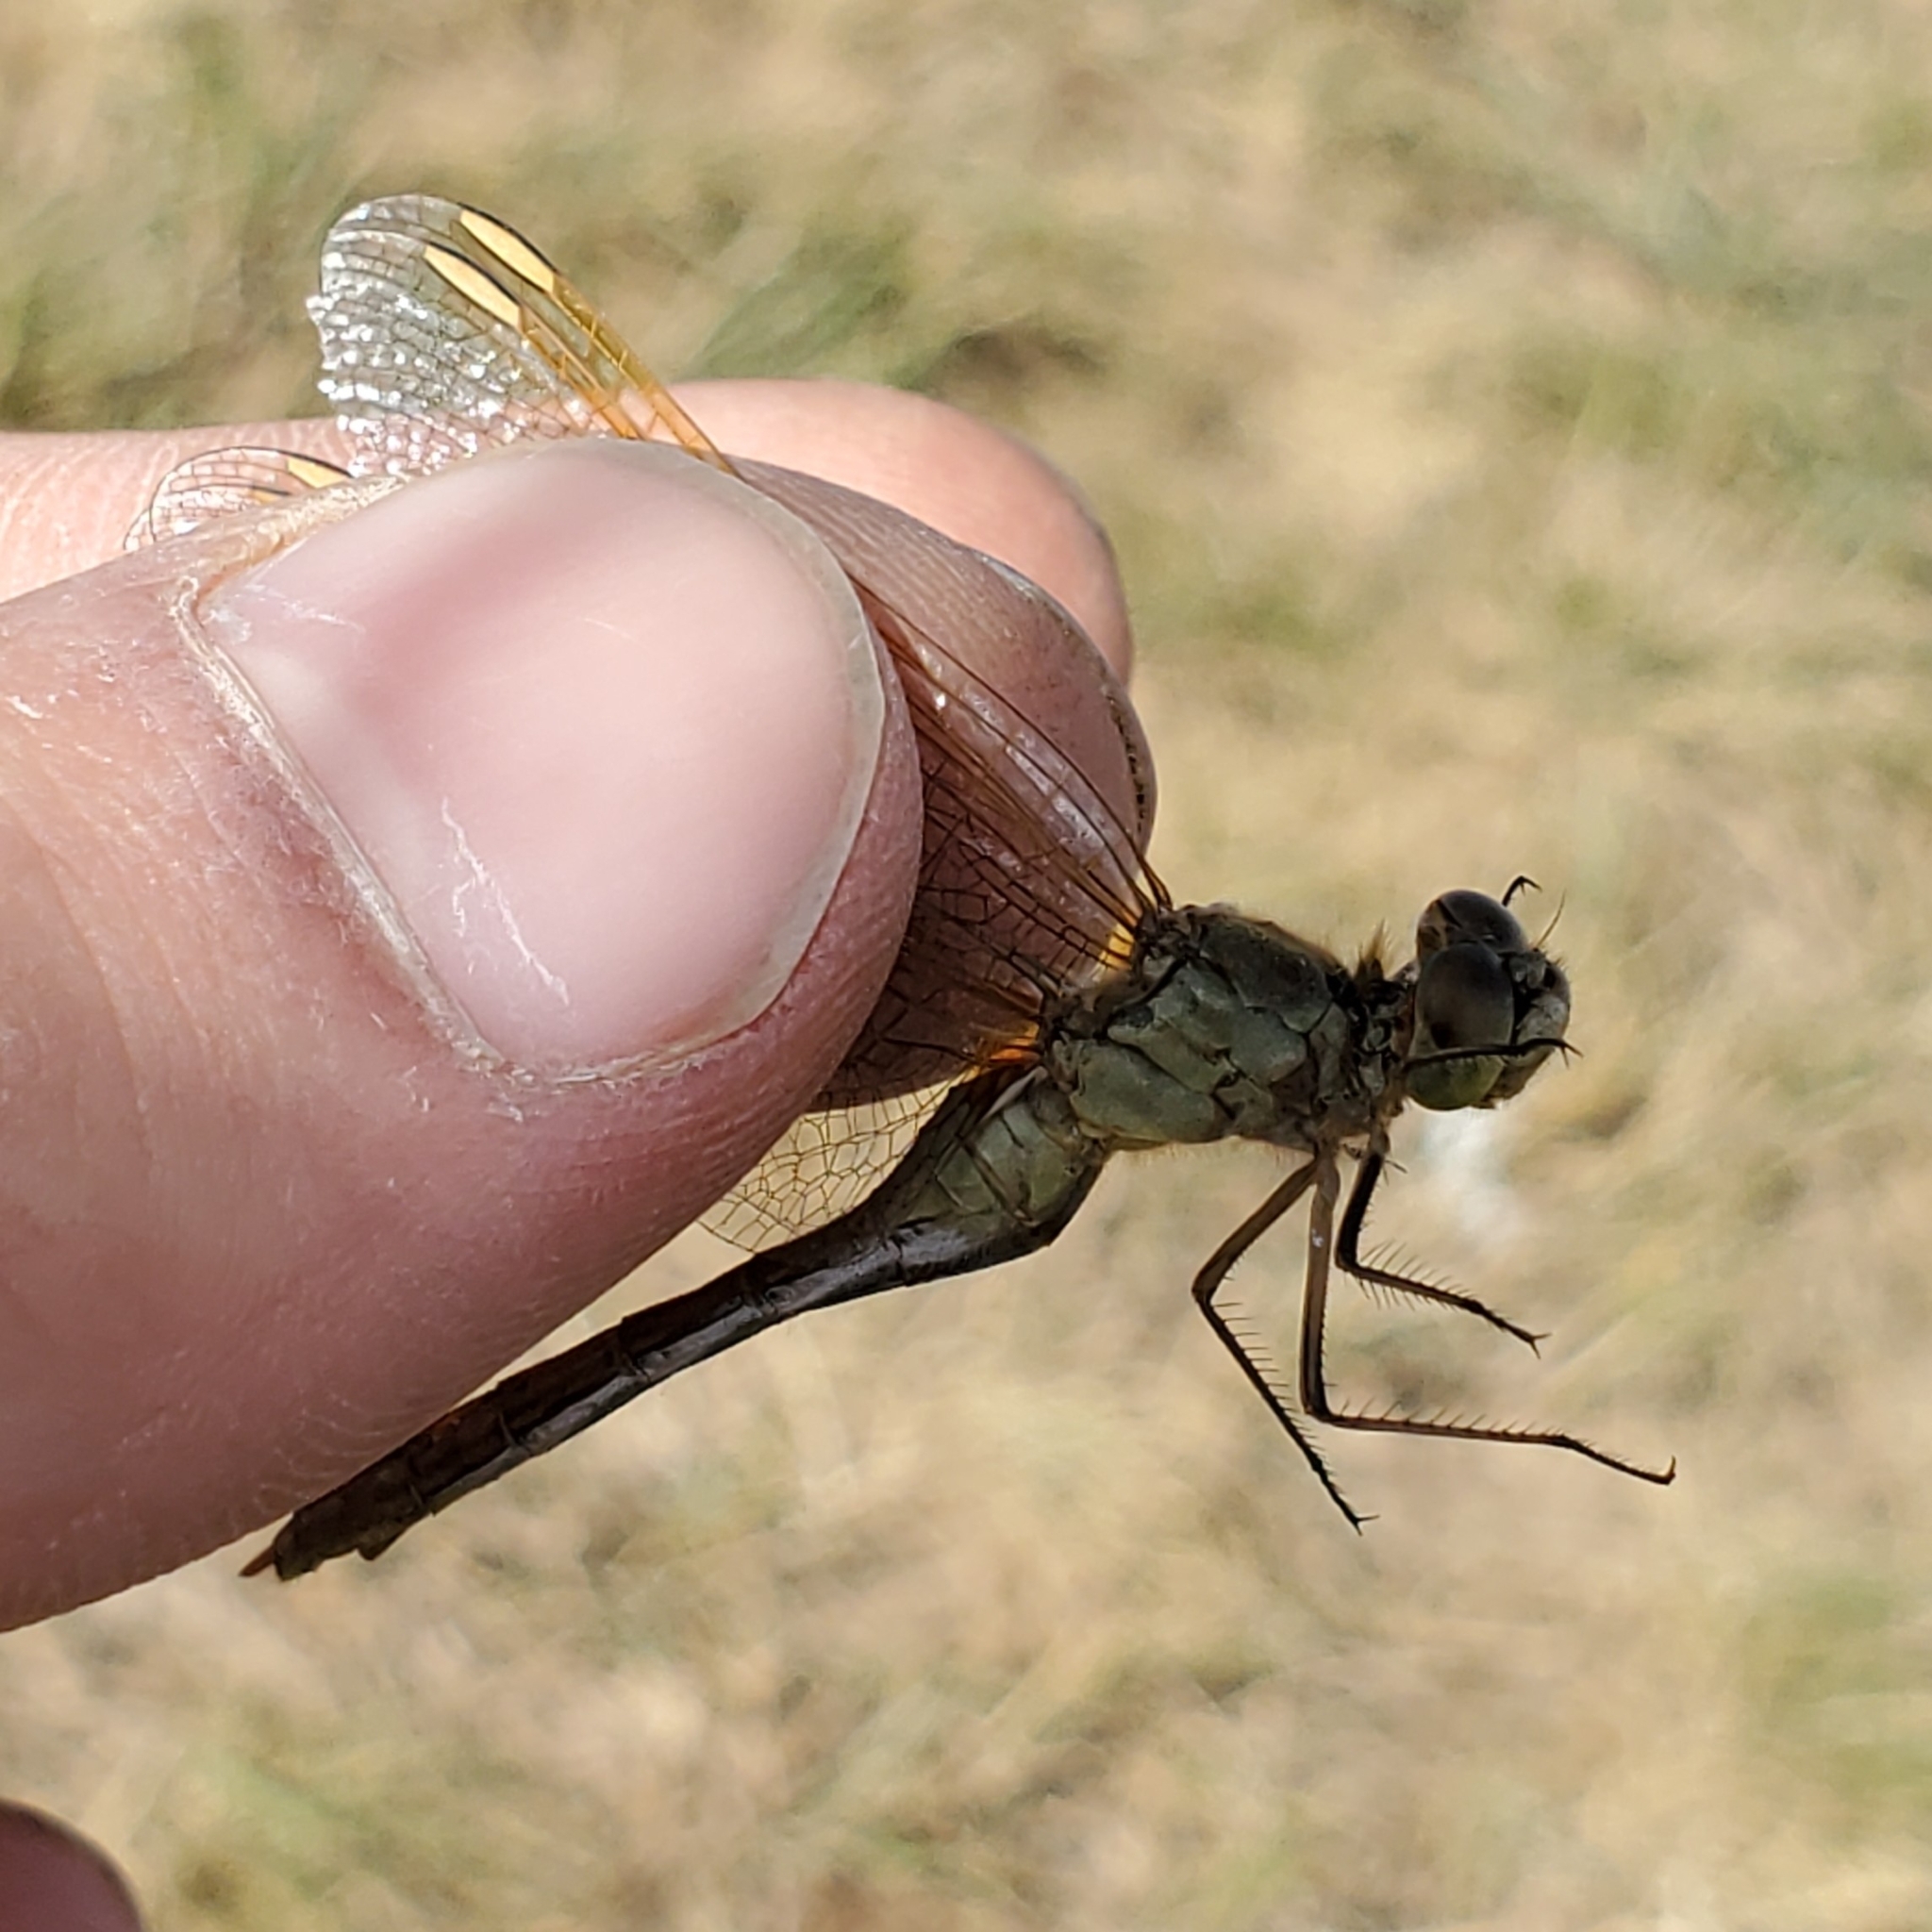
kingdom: Animalia
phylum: Arthropoda
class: Insecta
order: Odonata
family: Libellulidae
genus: Sympetrum
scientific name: Sympetrum costiferum
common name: Saffron-winged meadowhawk
